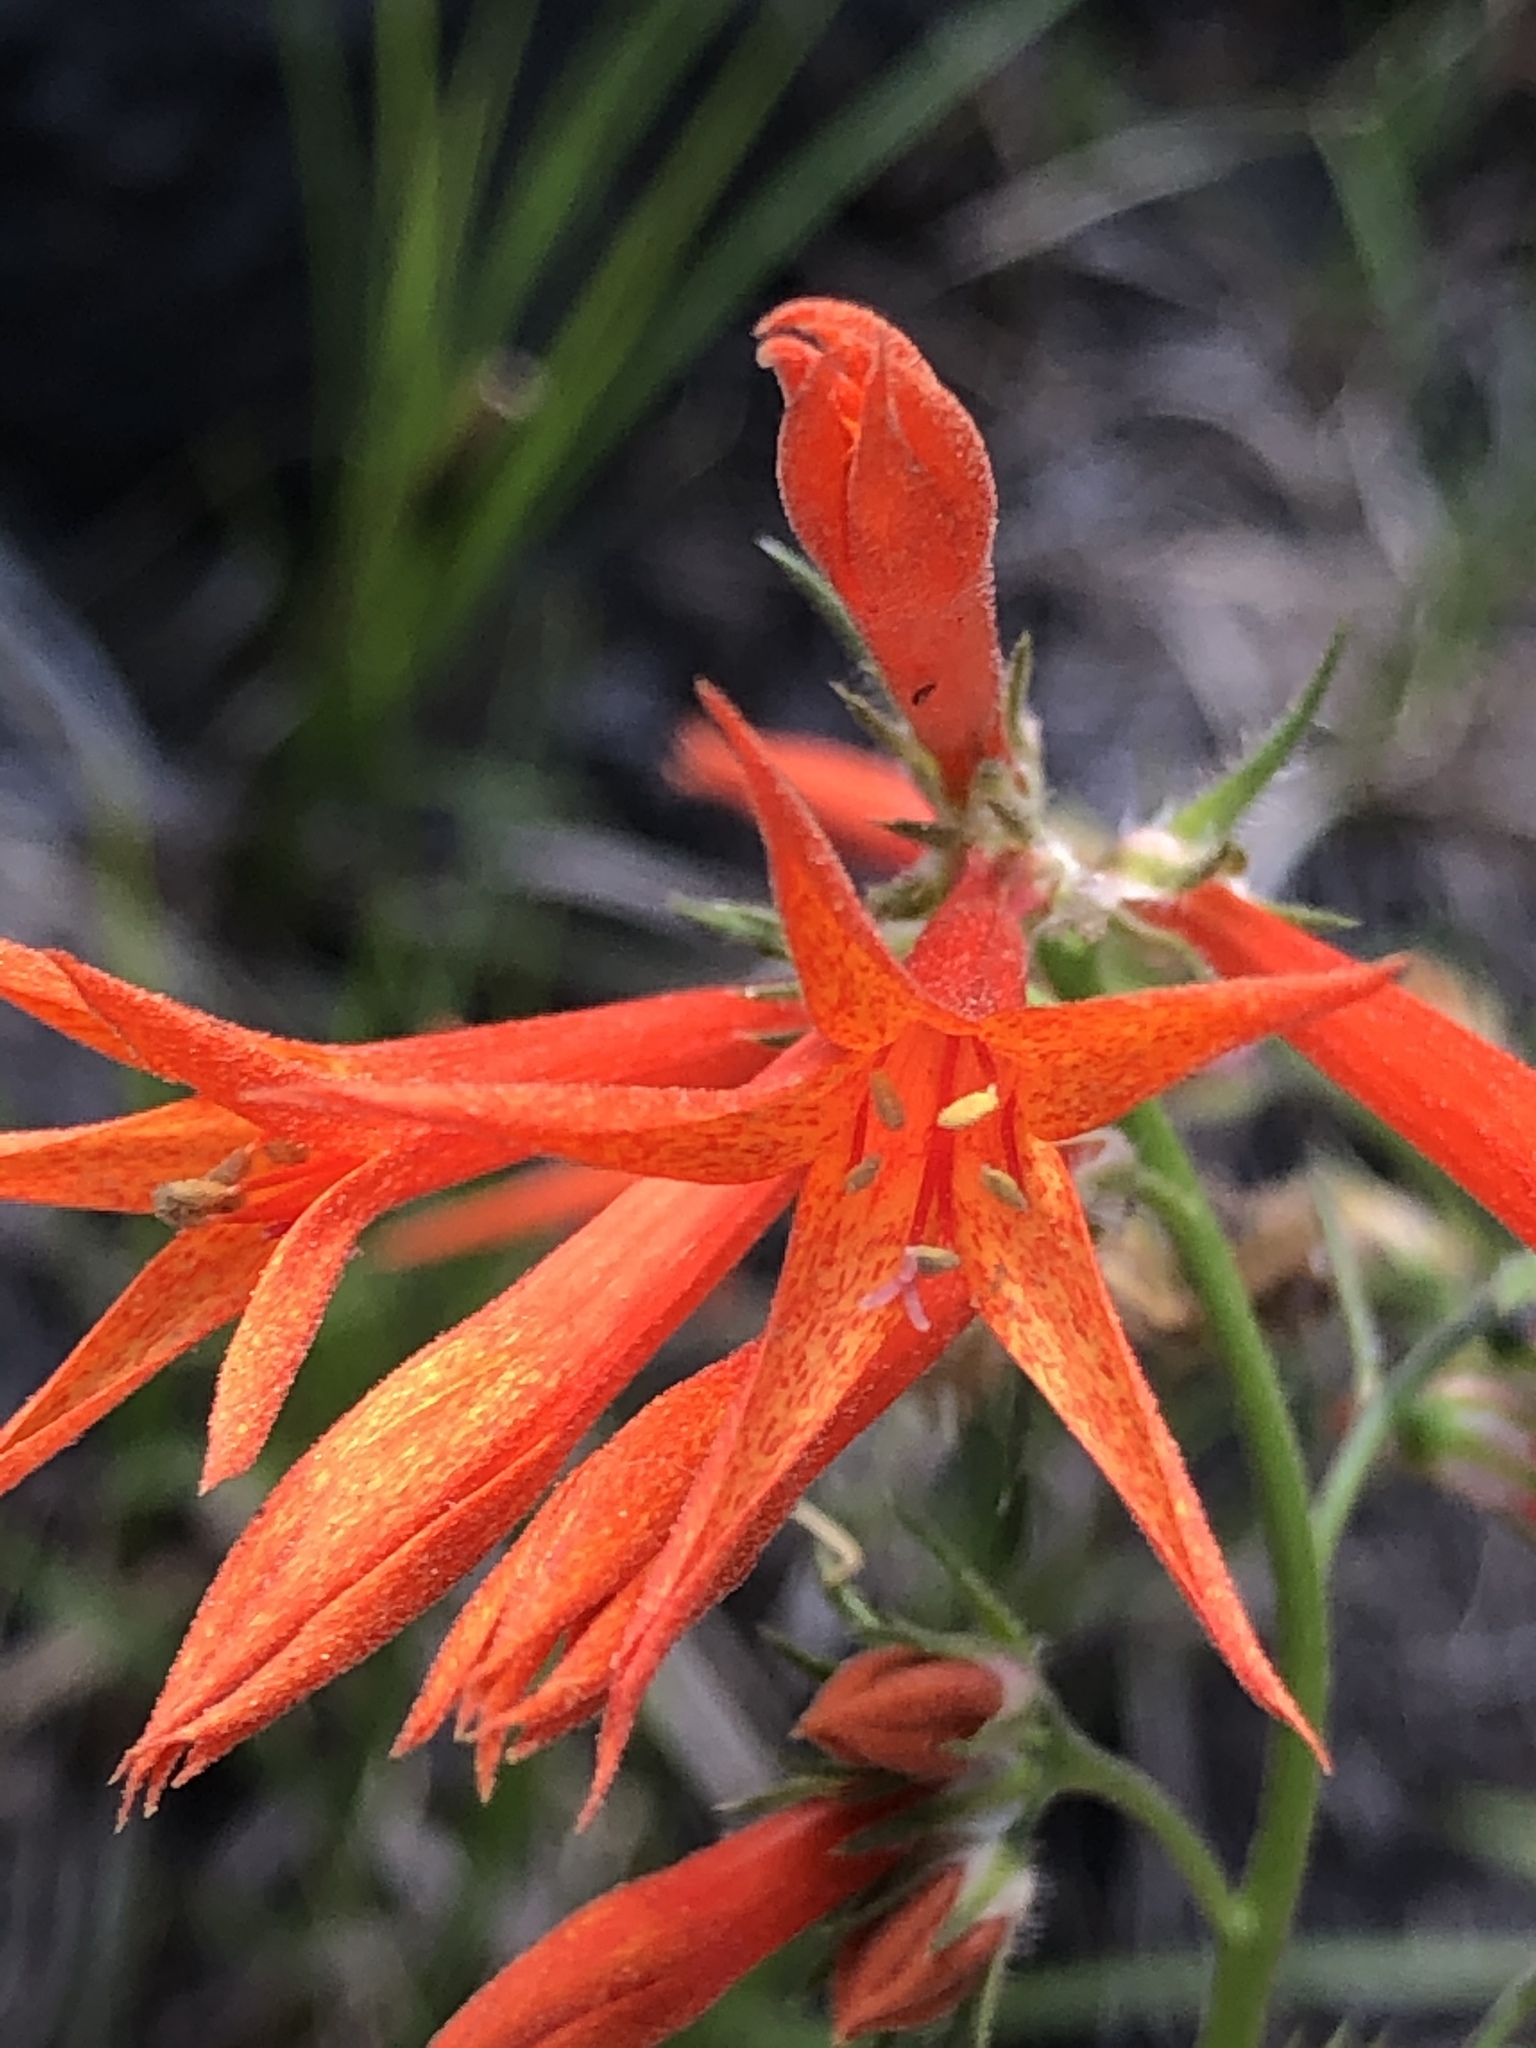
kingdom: Plantae
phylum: Tracheophyta
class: Magnoliopsida
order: Ericales
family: Polemoniaceae
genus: Ipomopsis
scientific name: Ipomopsis aggregata
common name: Scarlet gilia
